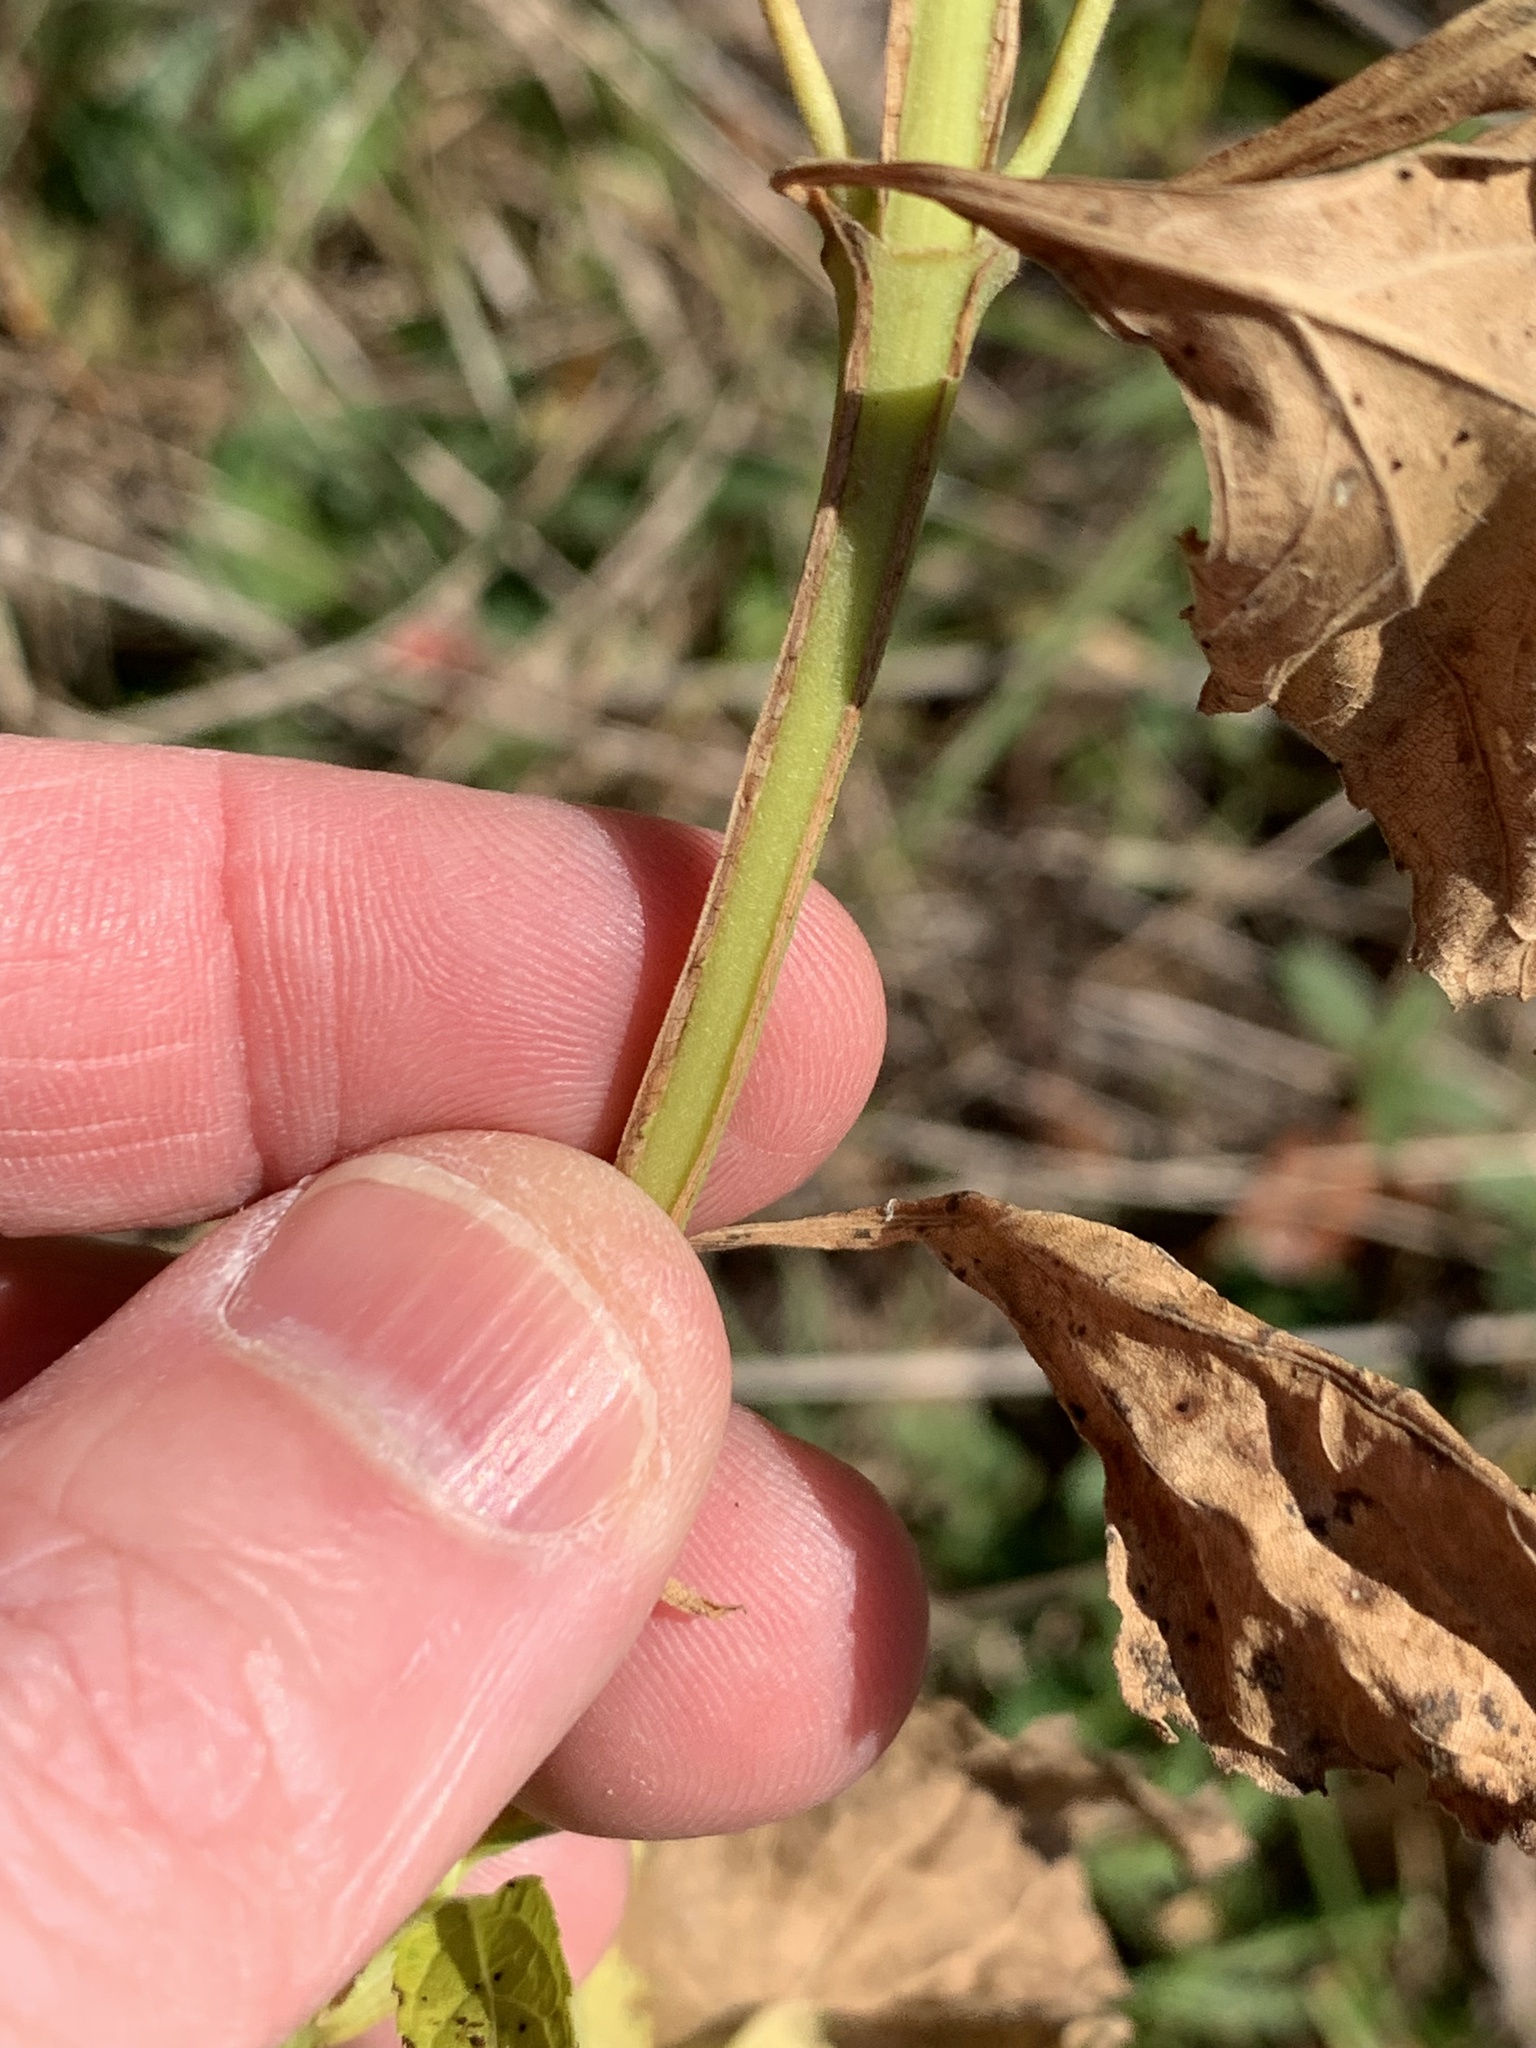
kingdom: Plantae
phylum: Tracheophyta
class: Magnoliopsida
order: Asterales
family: Asteraceae
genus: Verbesina
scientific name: Verbesina occidentalis
